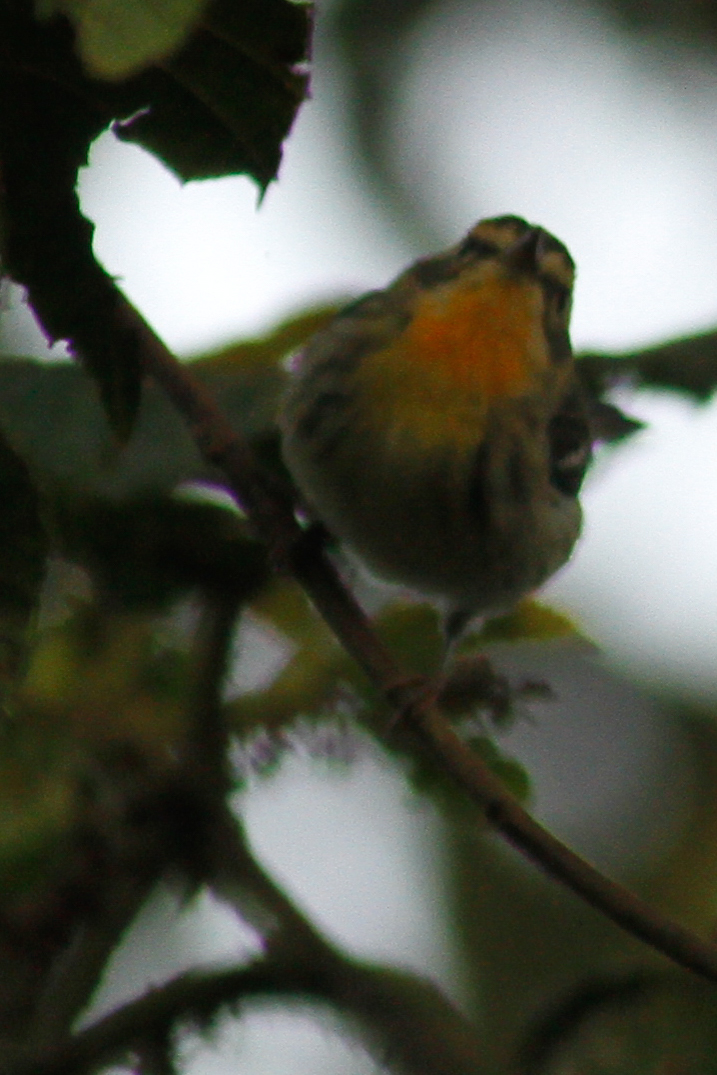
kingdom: Animalia
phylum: Chordata
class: Aves
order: Passeriformes
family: Parulidae
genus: Setophaga
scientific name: Setophaga fusca
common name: Blackburnian warbler
